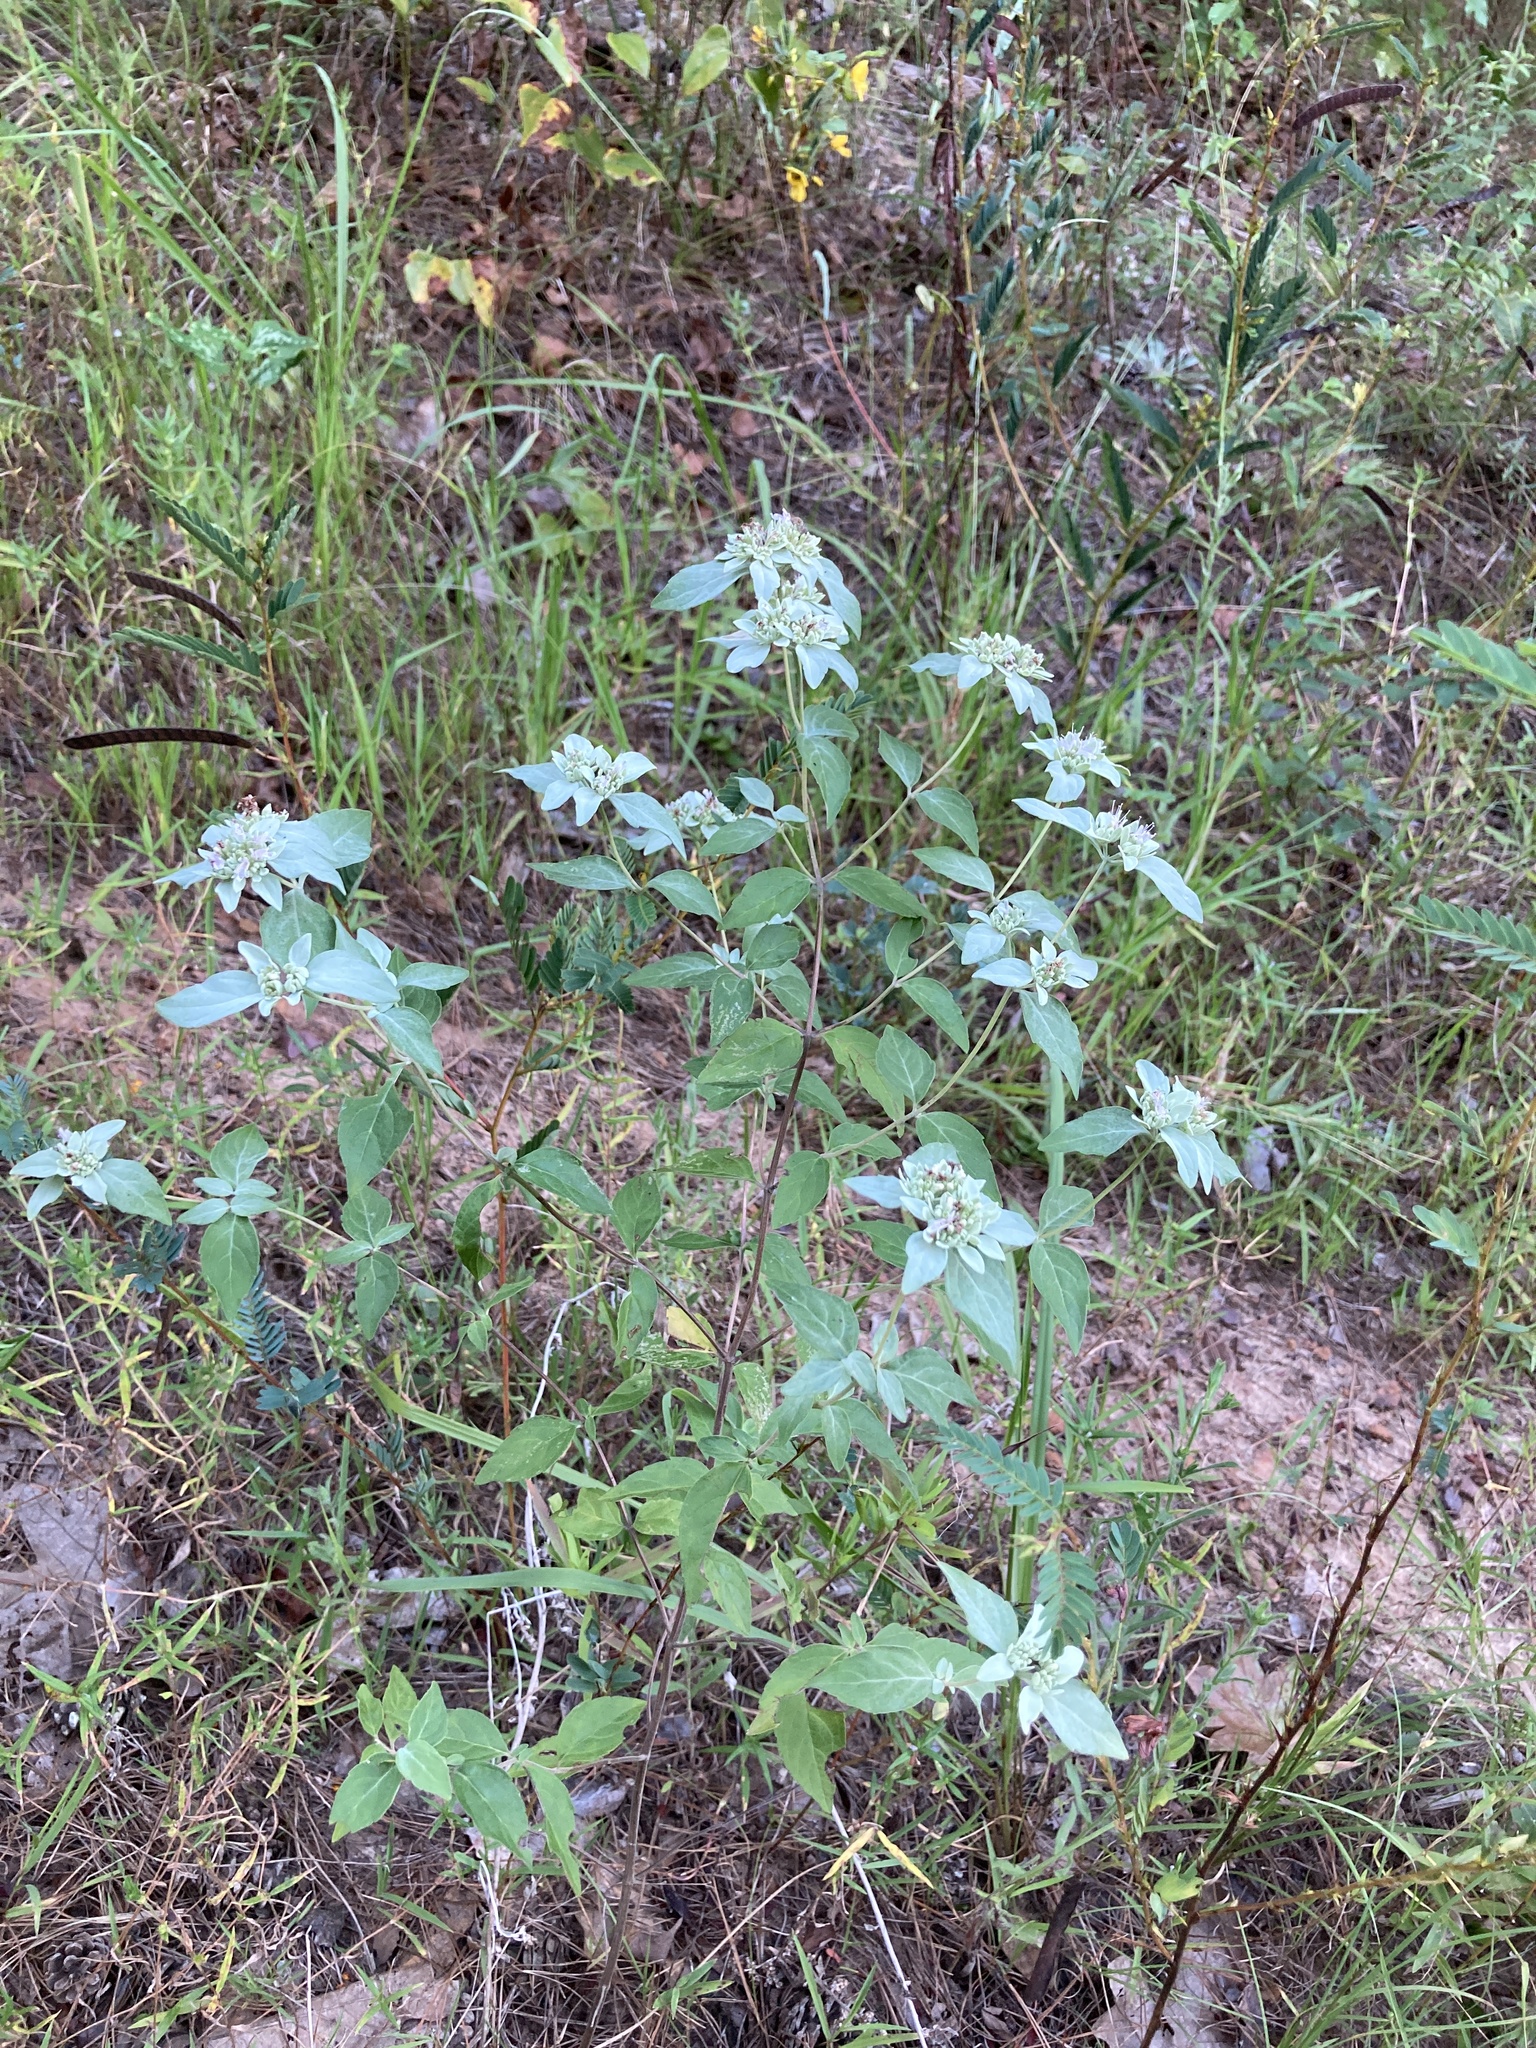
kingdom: Plantae
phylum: Tracheophyta
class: Magnoliopsida
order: Lamiales
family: Lamiaceae
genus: Pycnanthemum
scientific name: Pycnanthemum albescens
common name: White-leaf mountain-mint
